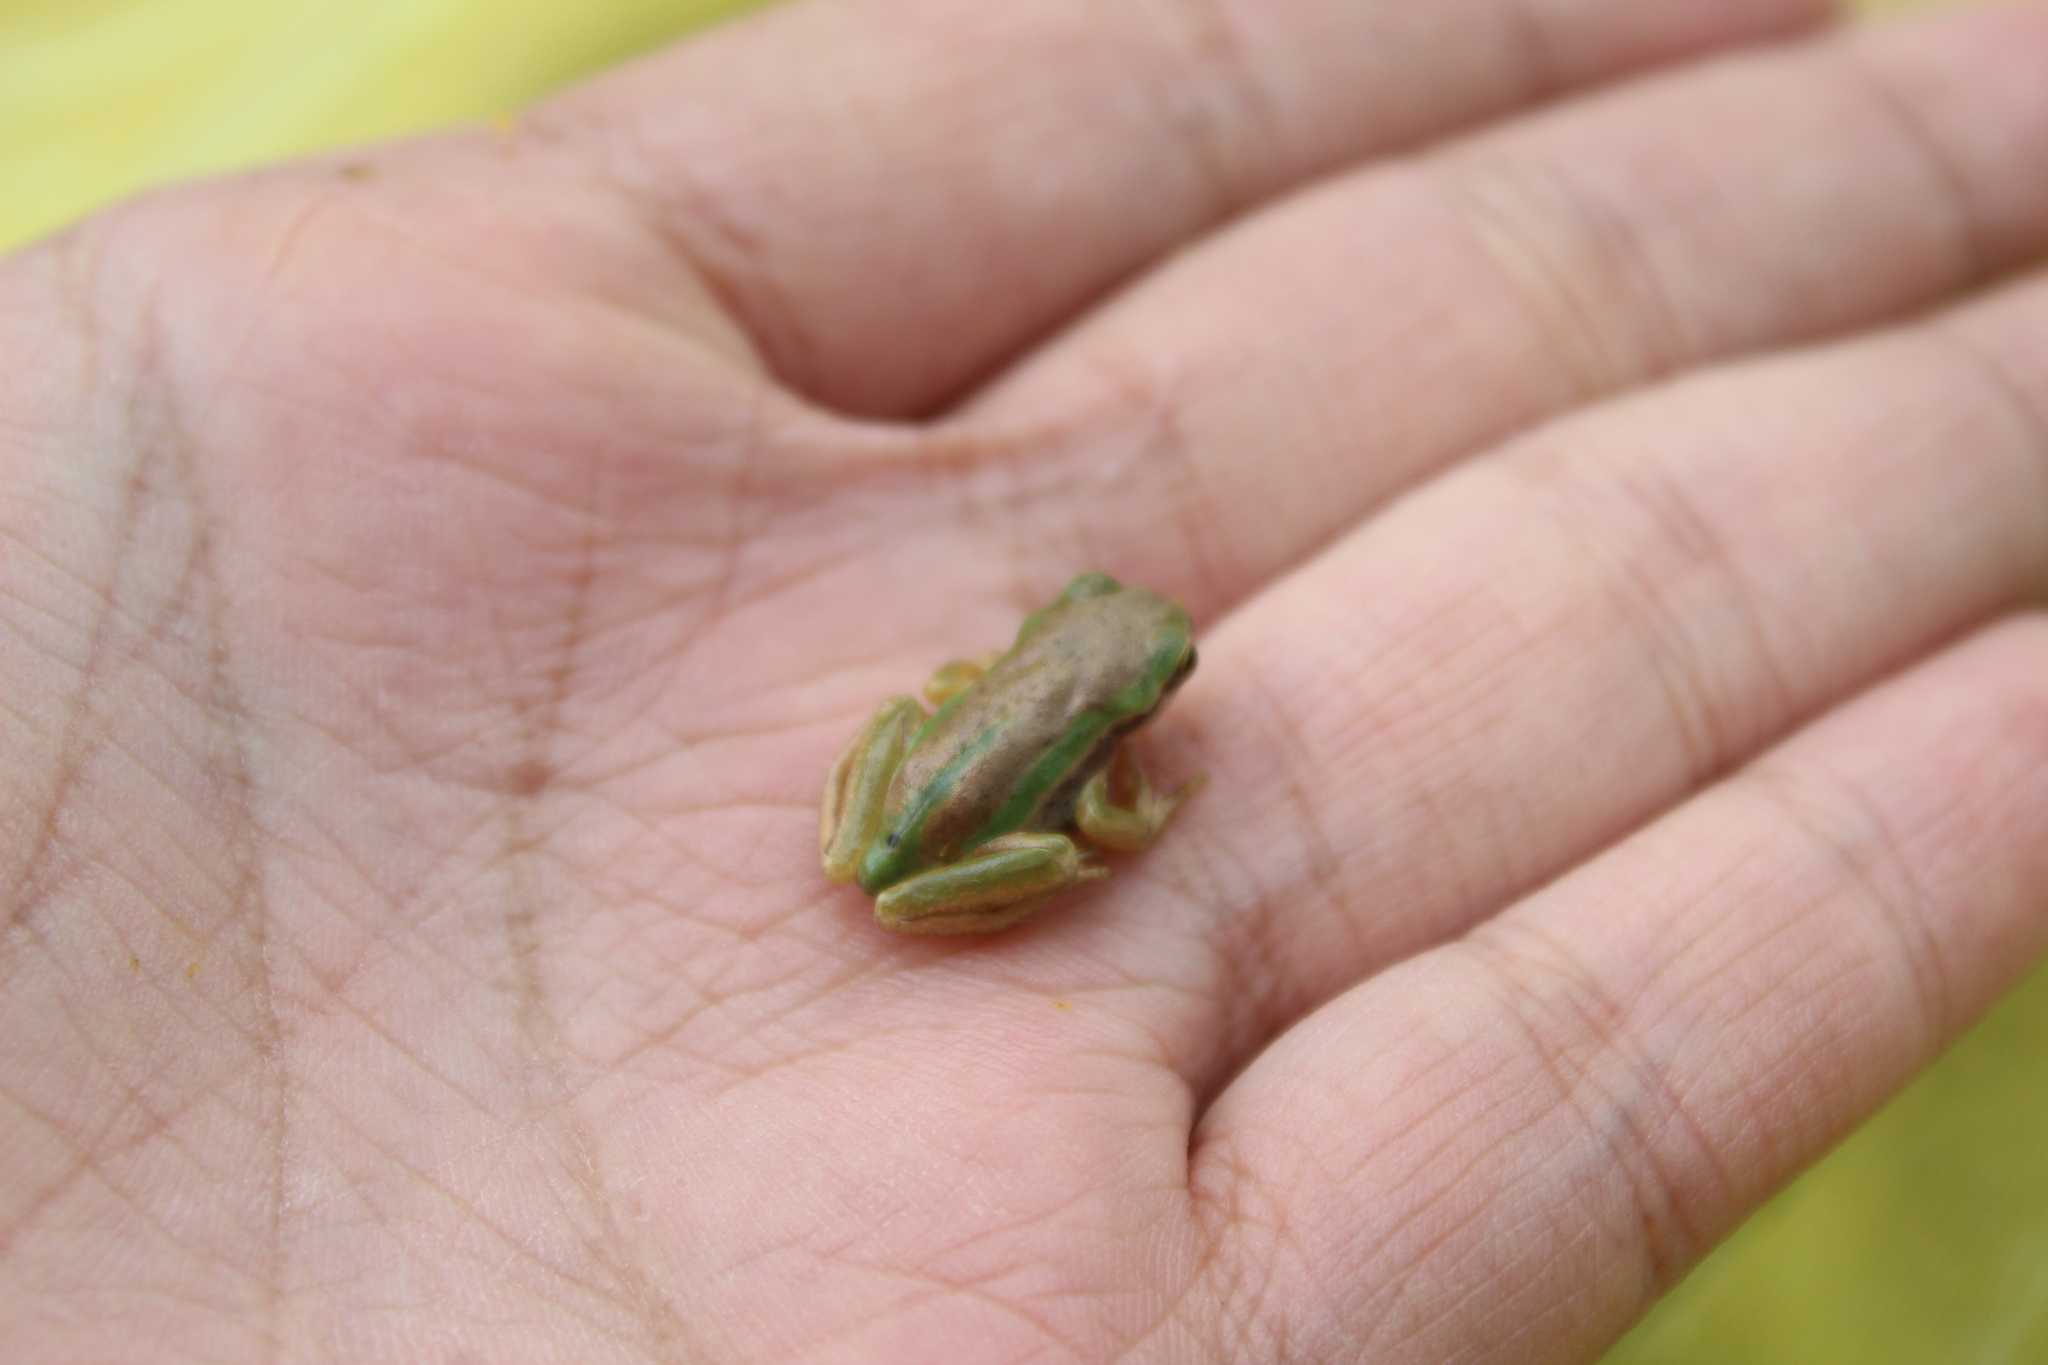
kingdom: Animalia
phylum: Chordata
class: Amphibia
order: Anura
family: Hylidae
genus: Dendropsophus
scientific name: Dendropsophus molitor
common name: Green dotted treefrog
